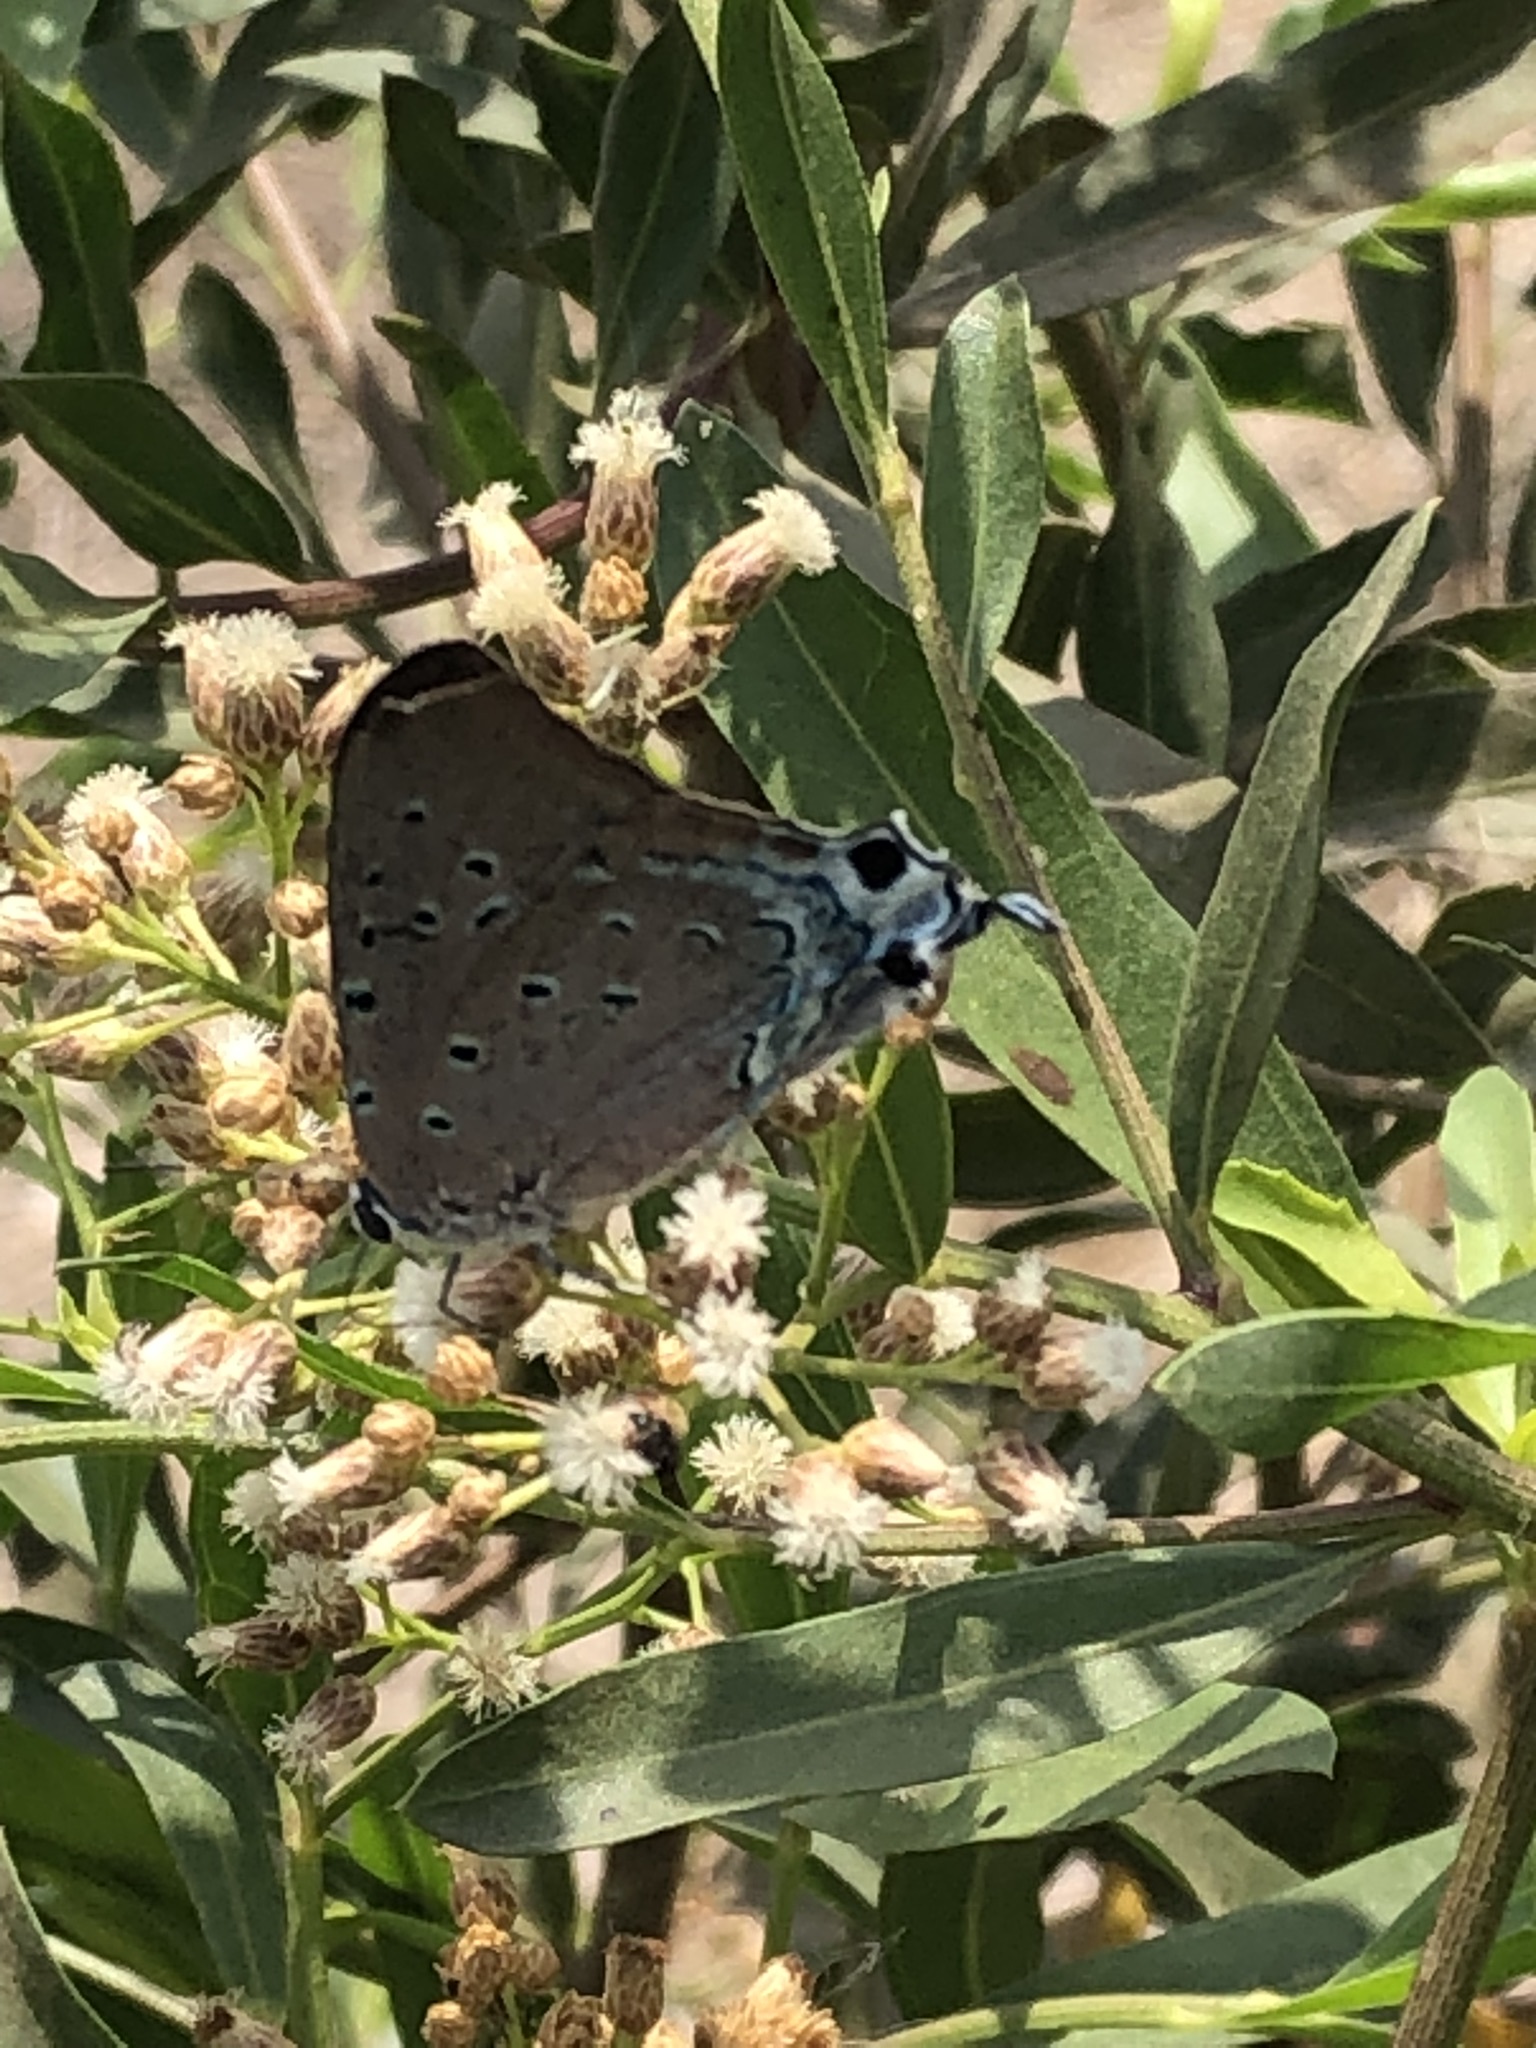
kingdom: Animalia
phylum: Arthropoda
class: Insecta
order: Lepidoptera
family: Lycaenidae
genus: Pseudolycaena
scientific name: Pseudolycaena damo
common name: Sky-blue hairstreak
